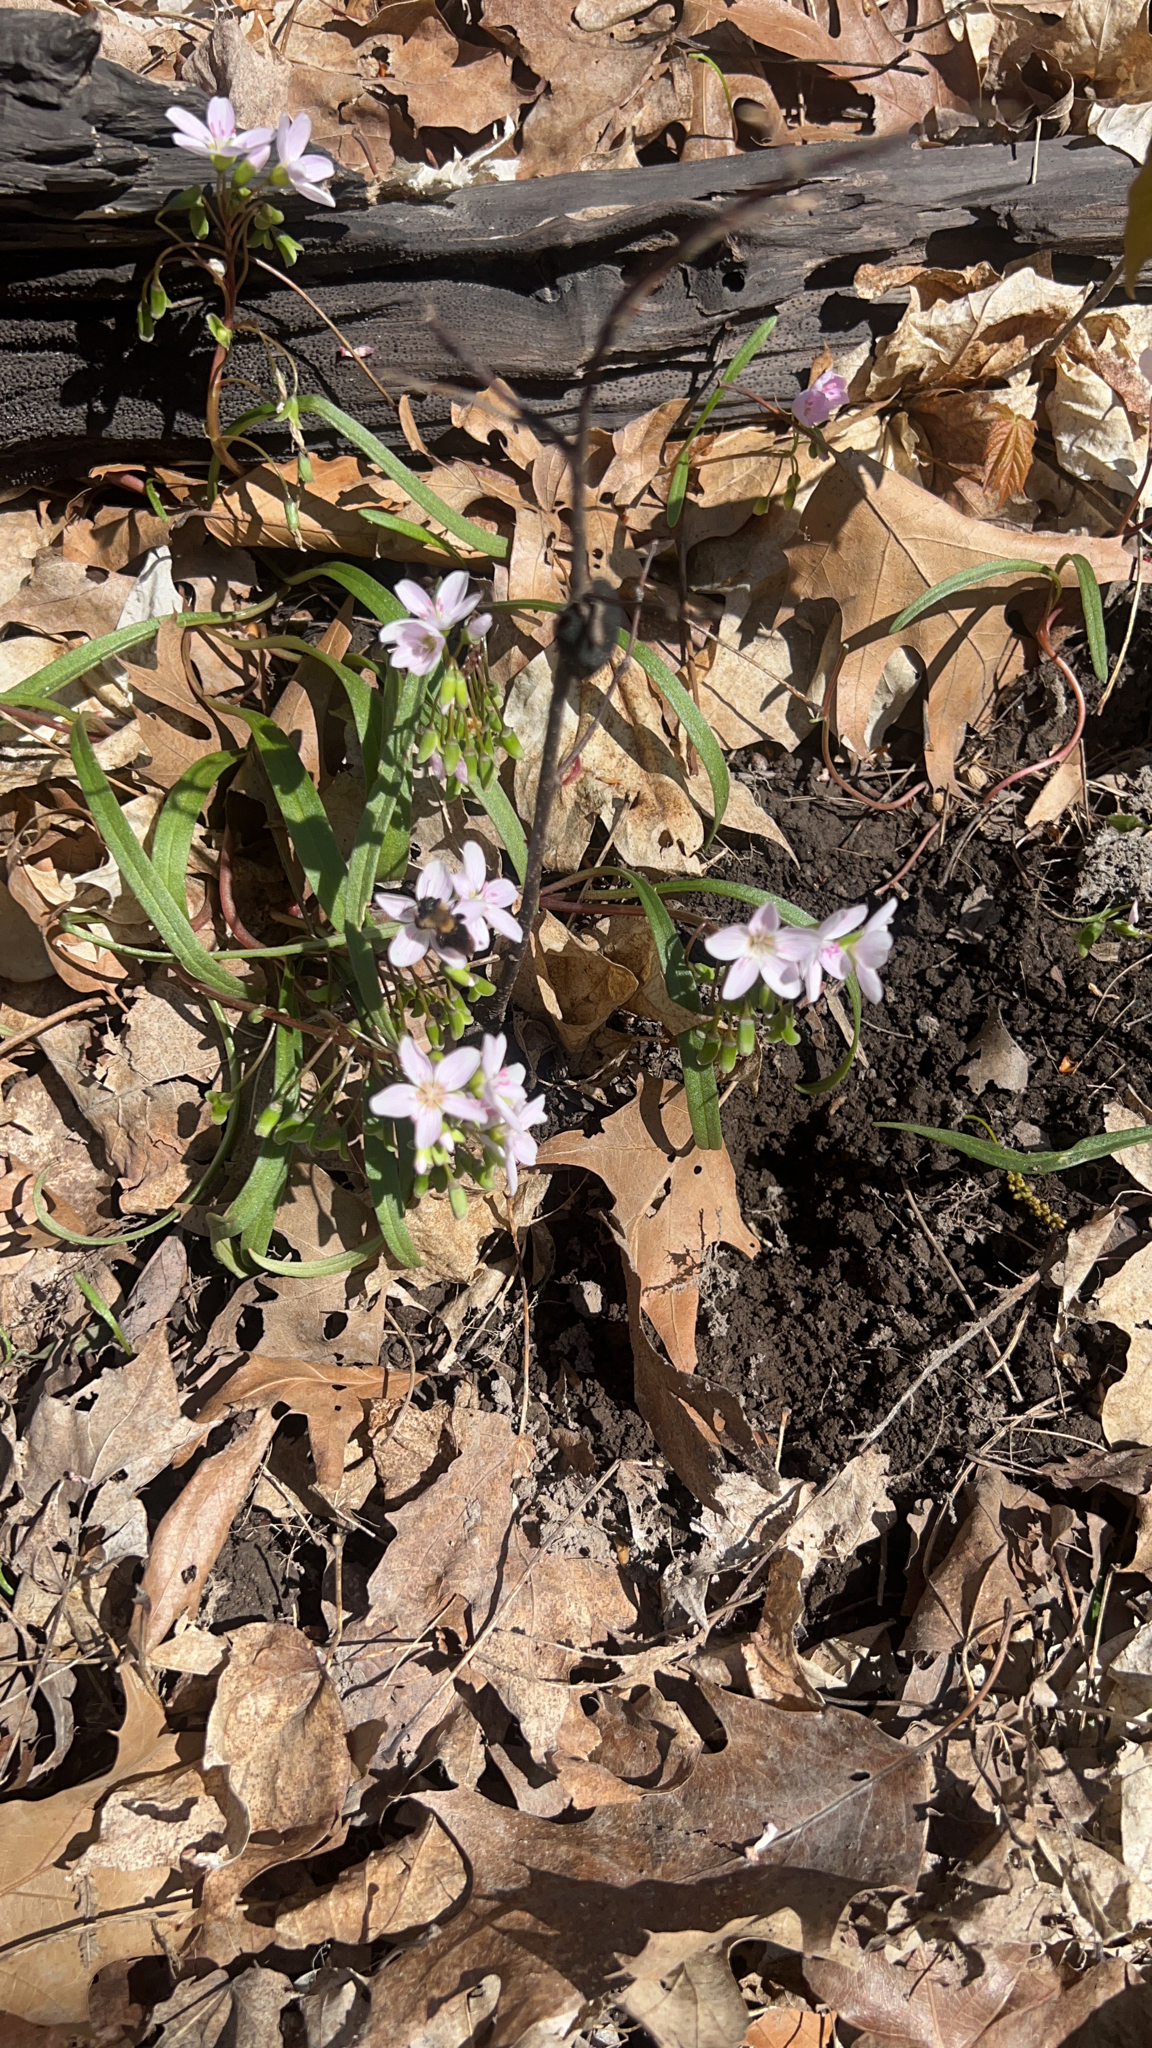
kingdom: Plantae
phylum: Tracheophyta
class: Magnoliopsida
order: Caryophyllales
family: Montiaceae
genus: Claytonia
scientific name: Claytonia virginica
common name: Virginia springbeauty
